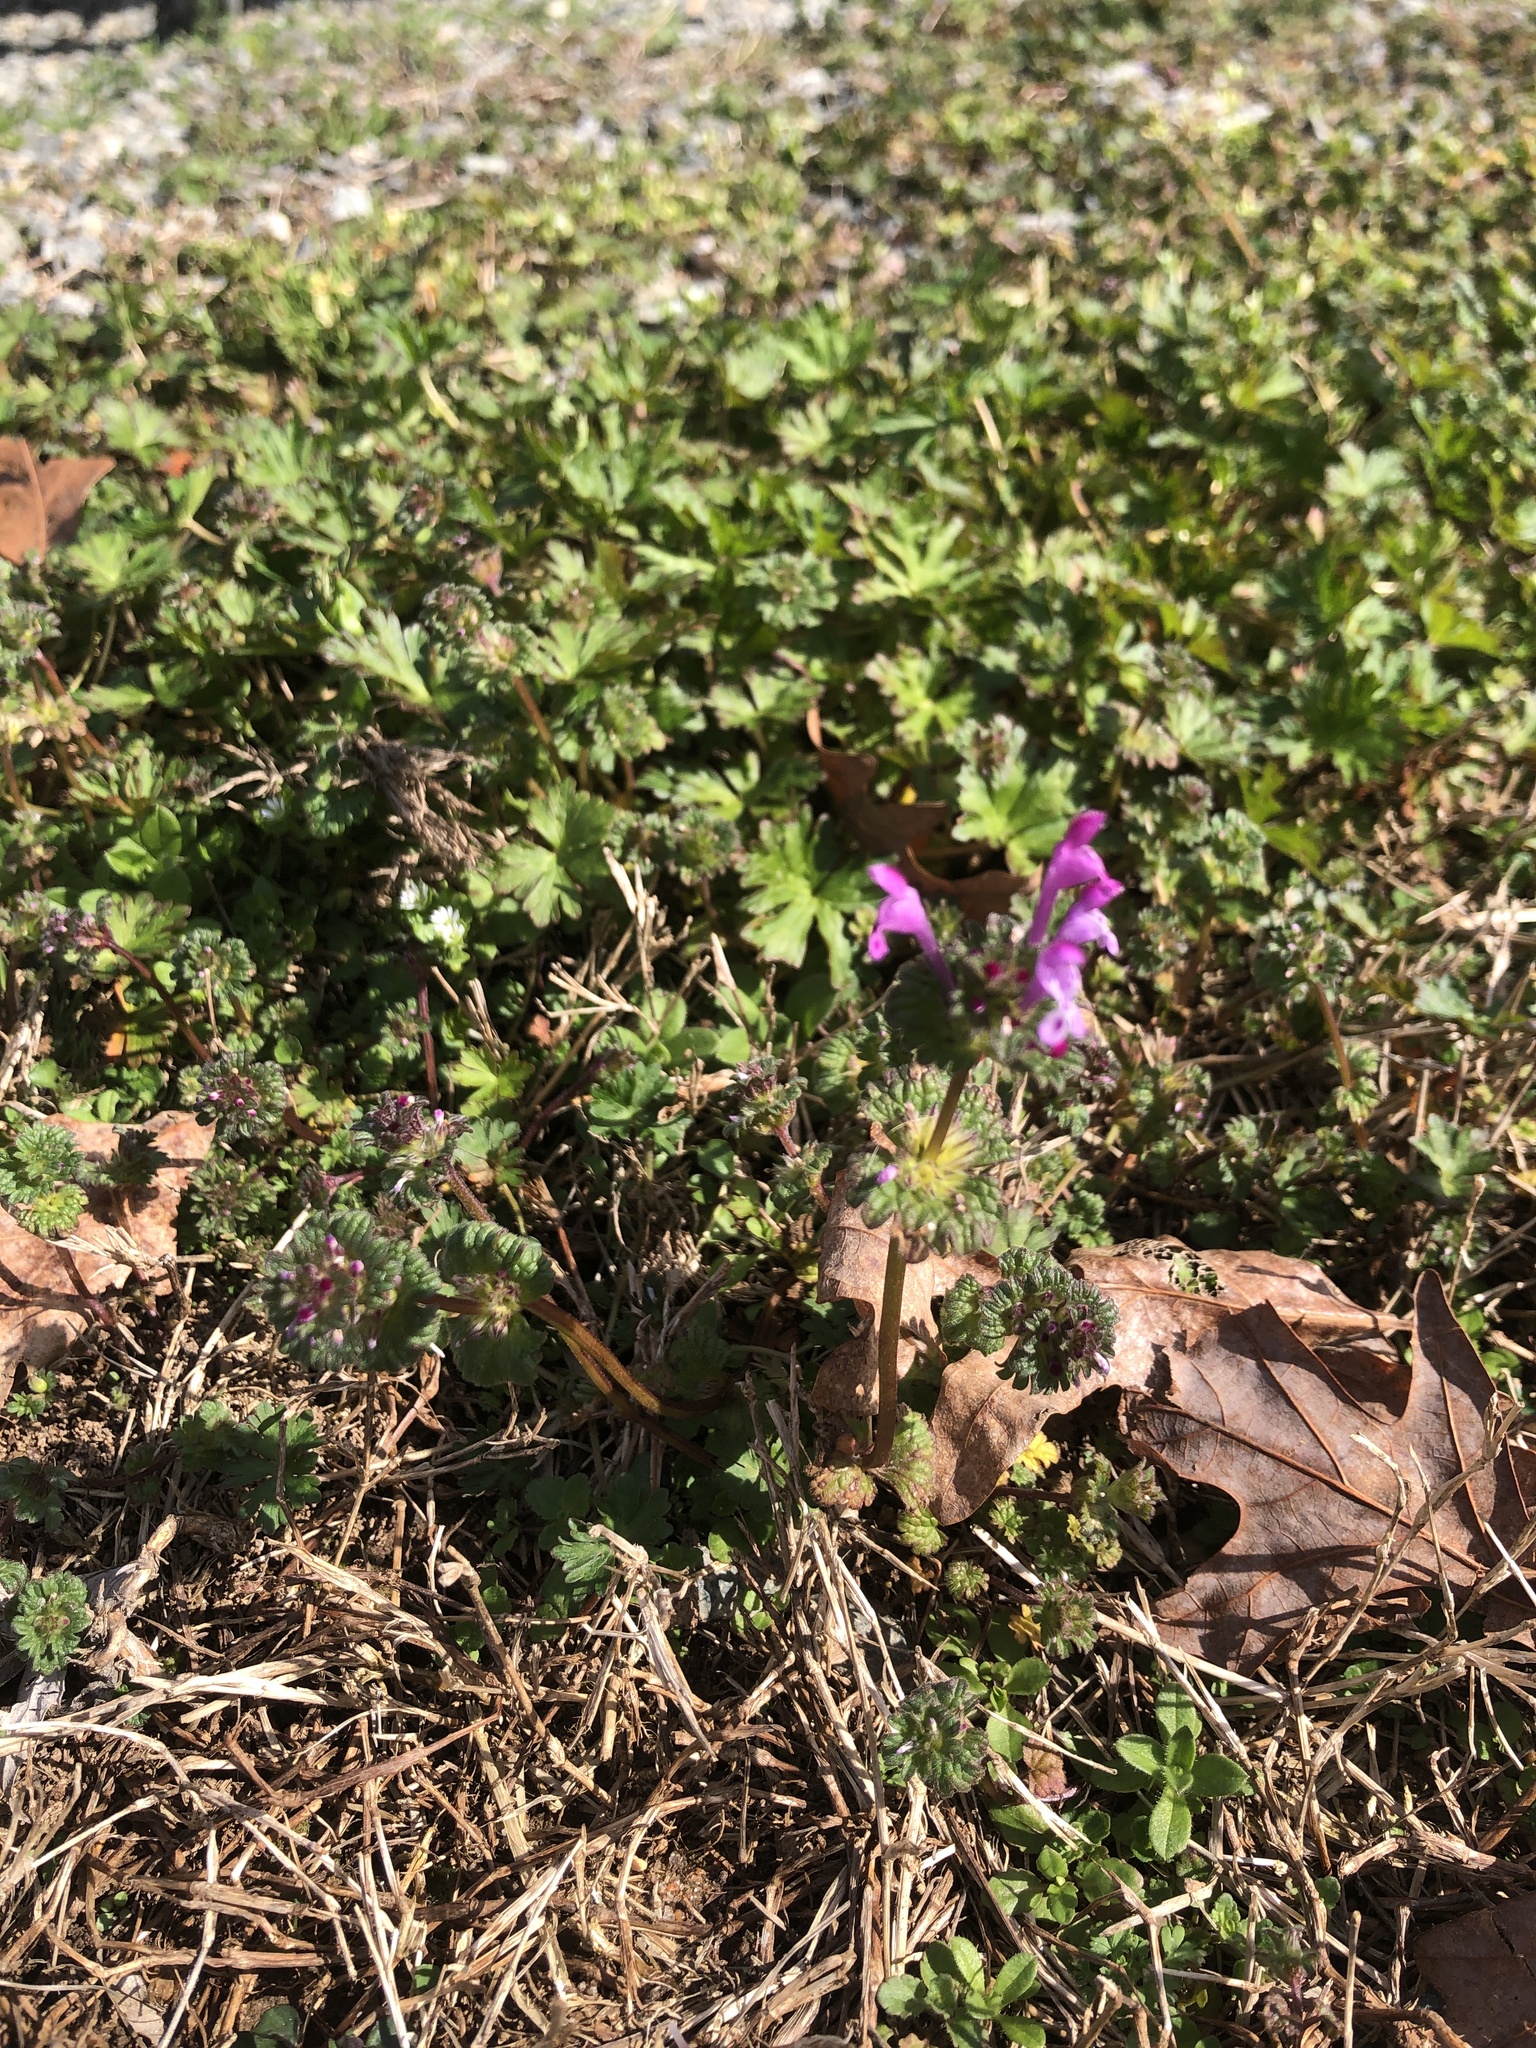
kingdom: Plantae
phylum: Tracheophyta
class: Magnoliopsida
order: Lamiales
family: Lamiaceae
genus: Lamium
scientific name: Lamium amplexicaule
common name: Henbit dead-nettle
